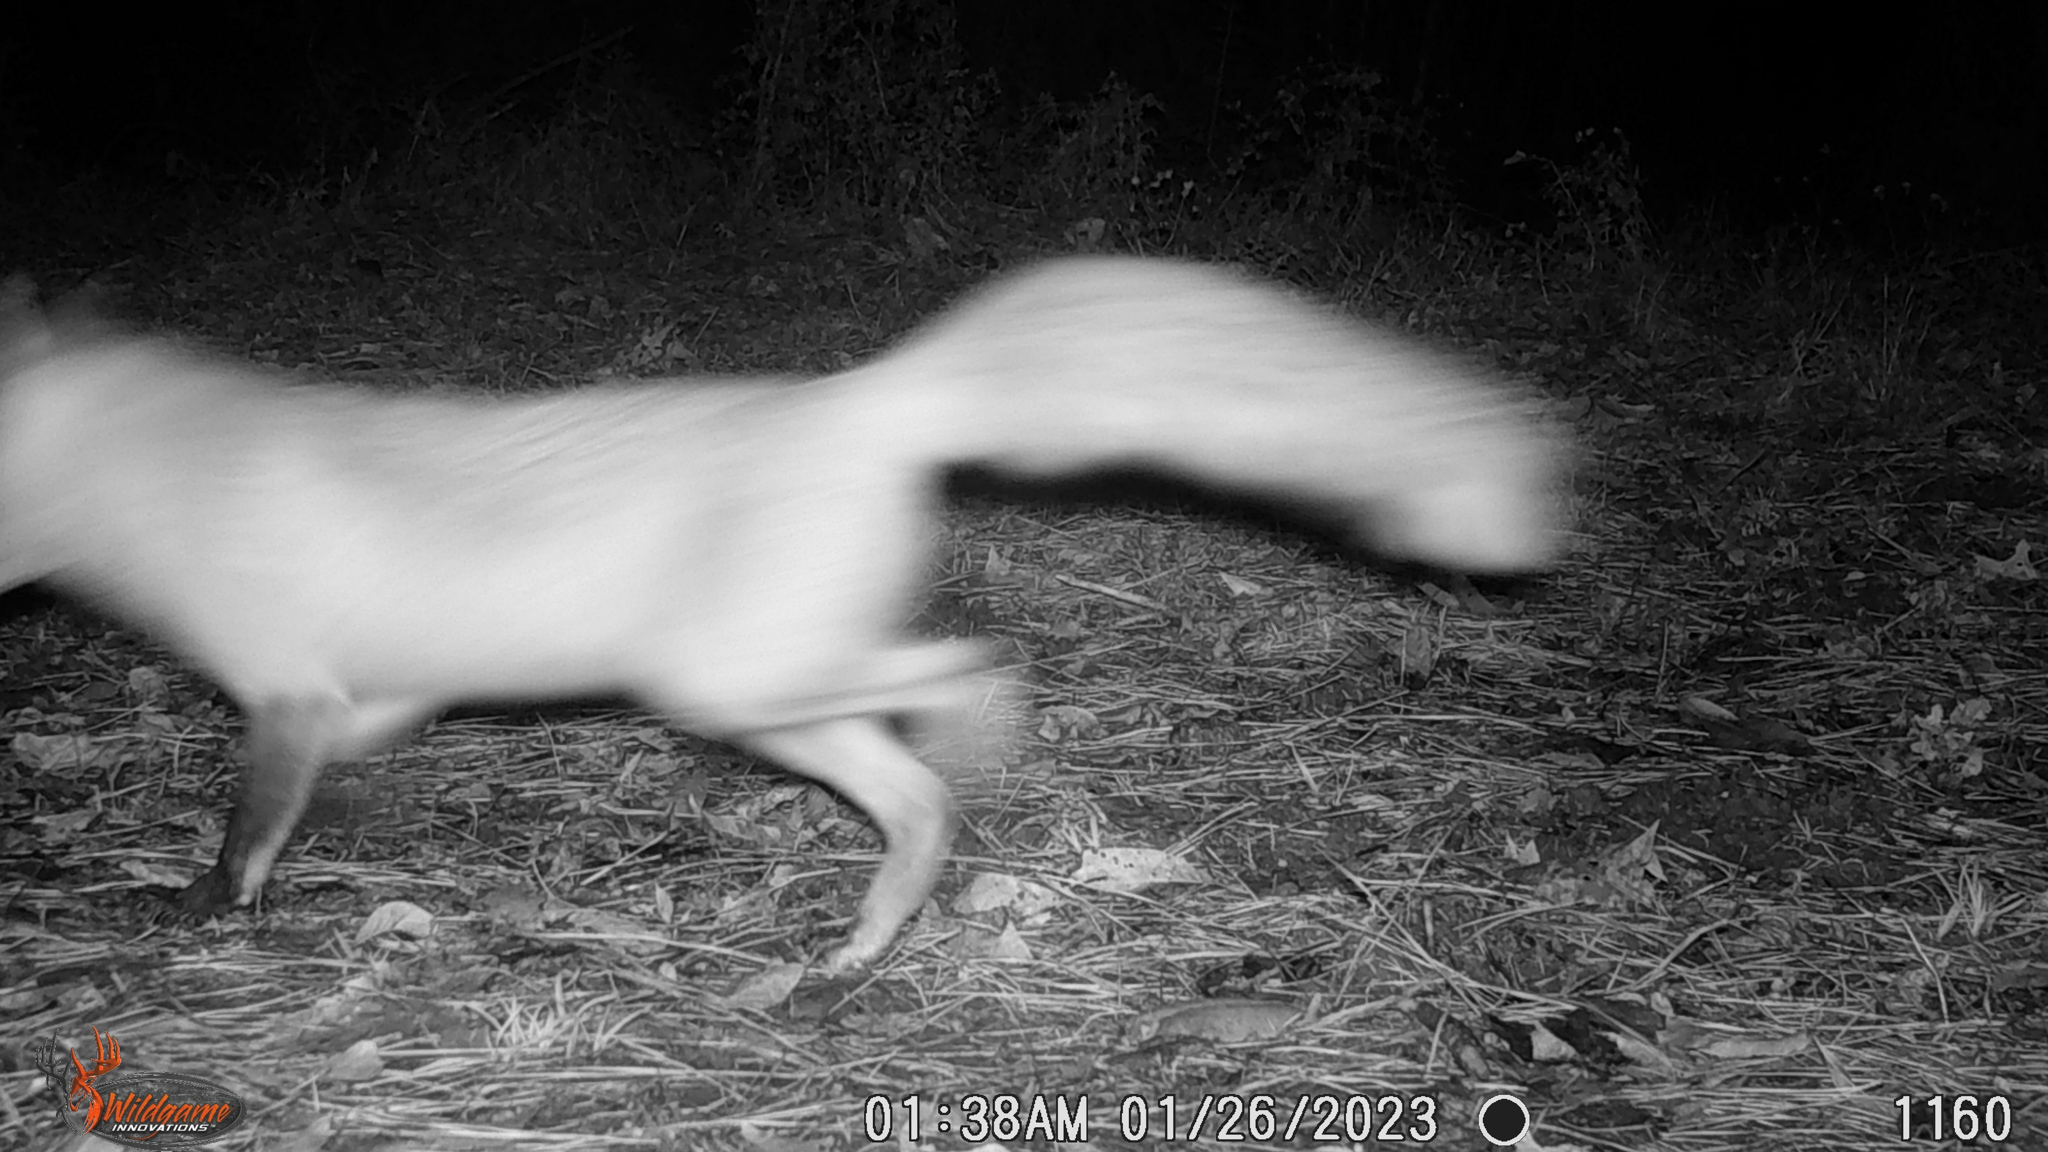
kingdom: Animalia
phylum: Chordata
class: Mammalia
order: Carnivora
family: Canidae
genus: Vulpes
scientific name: Vulpes vulpes
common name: Red fox
